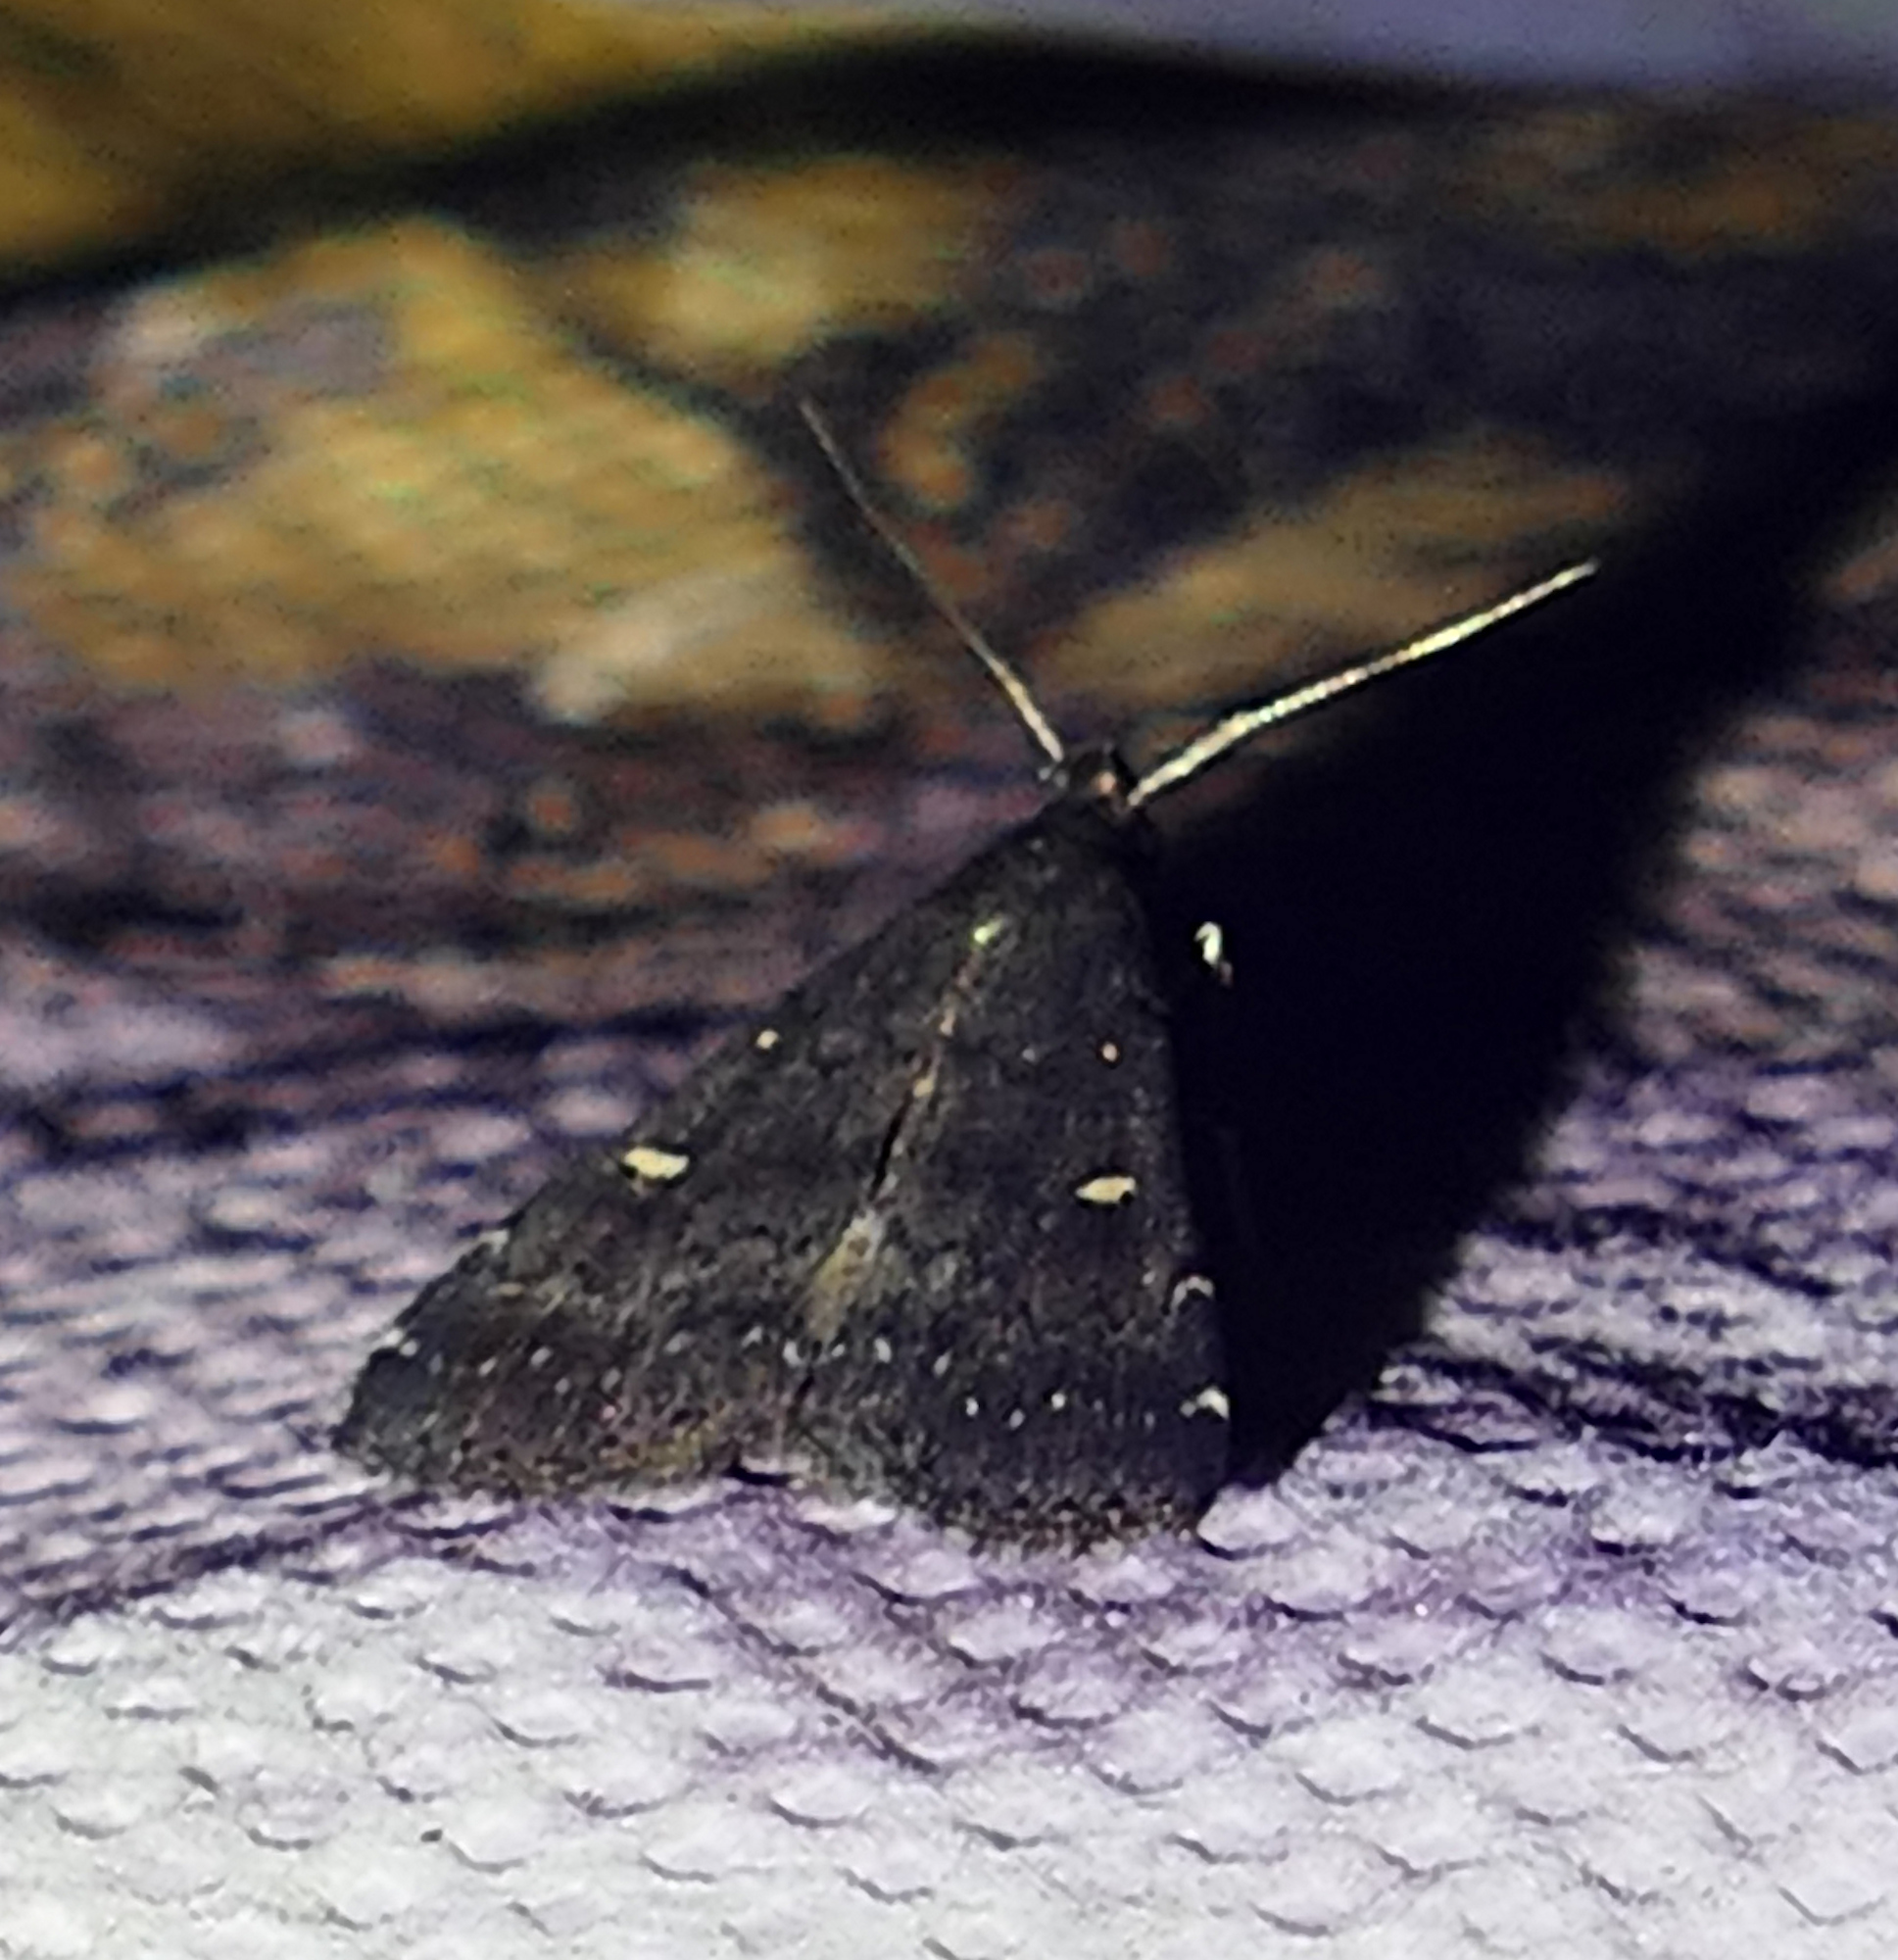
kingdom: Animalia
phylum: Arthropoda
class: Insecta
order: Lepidoptera
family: Erebidae
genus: Tetanolita
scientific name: Tetanolita mynesalis
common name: Smoky tetanolita moth
